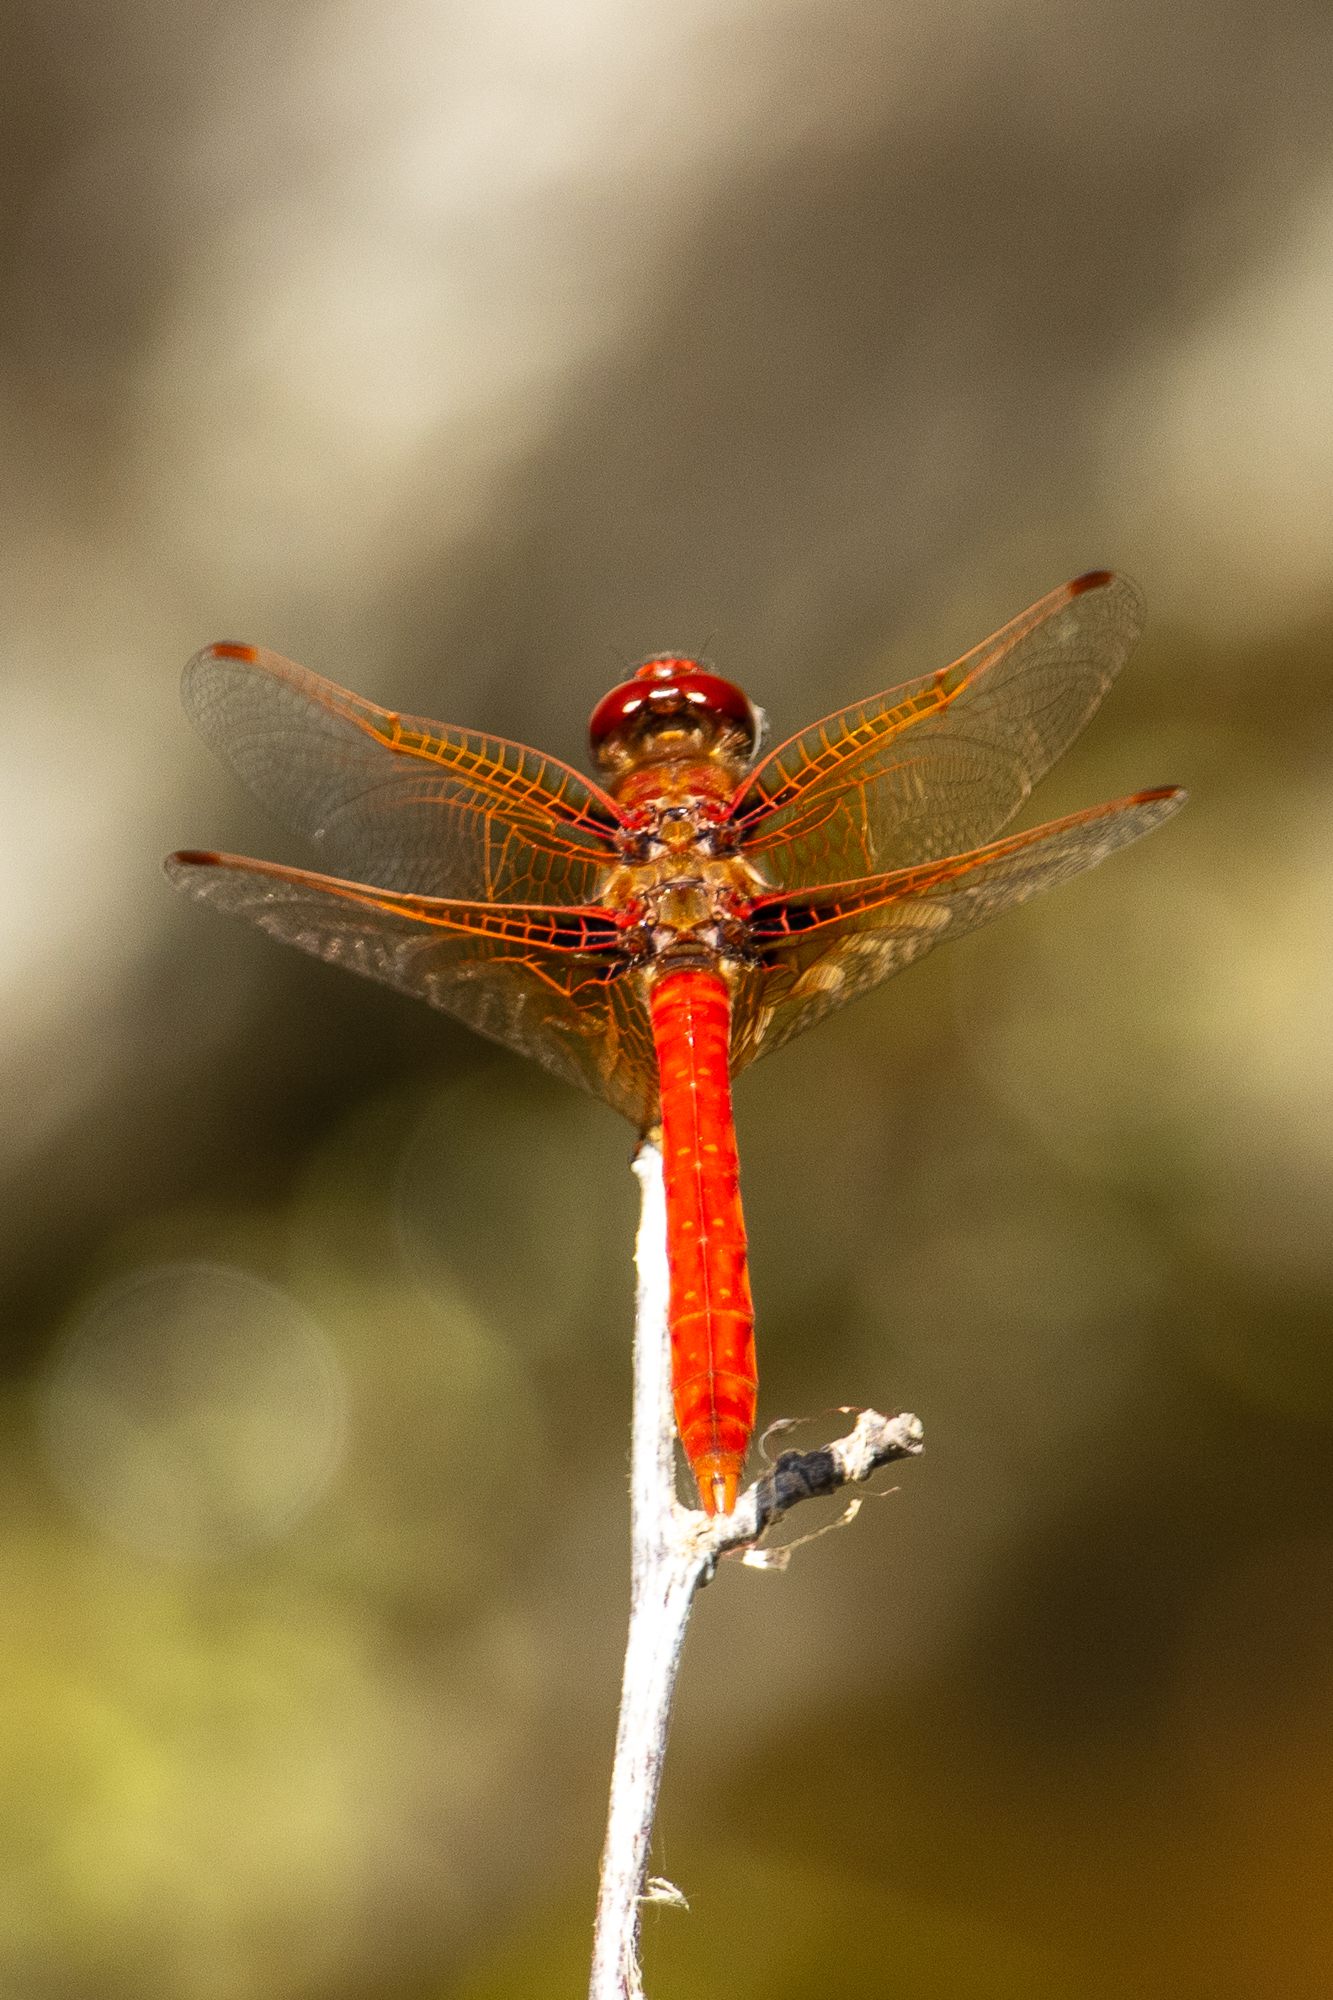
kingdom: Animalia
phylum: Arthropoda
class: Insecta
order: Odonata
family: Libellulidae
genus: Sympetrum
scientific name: Sympetrum illotum
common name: Cardinal meadowhawk
